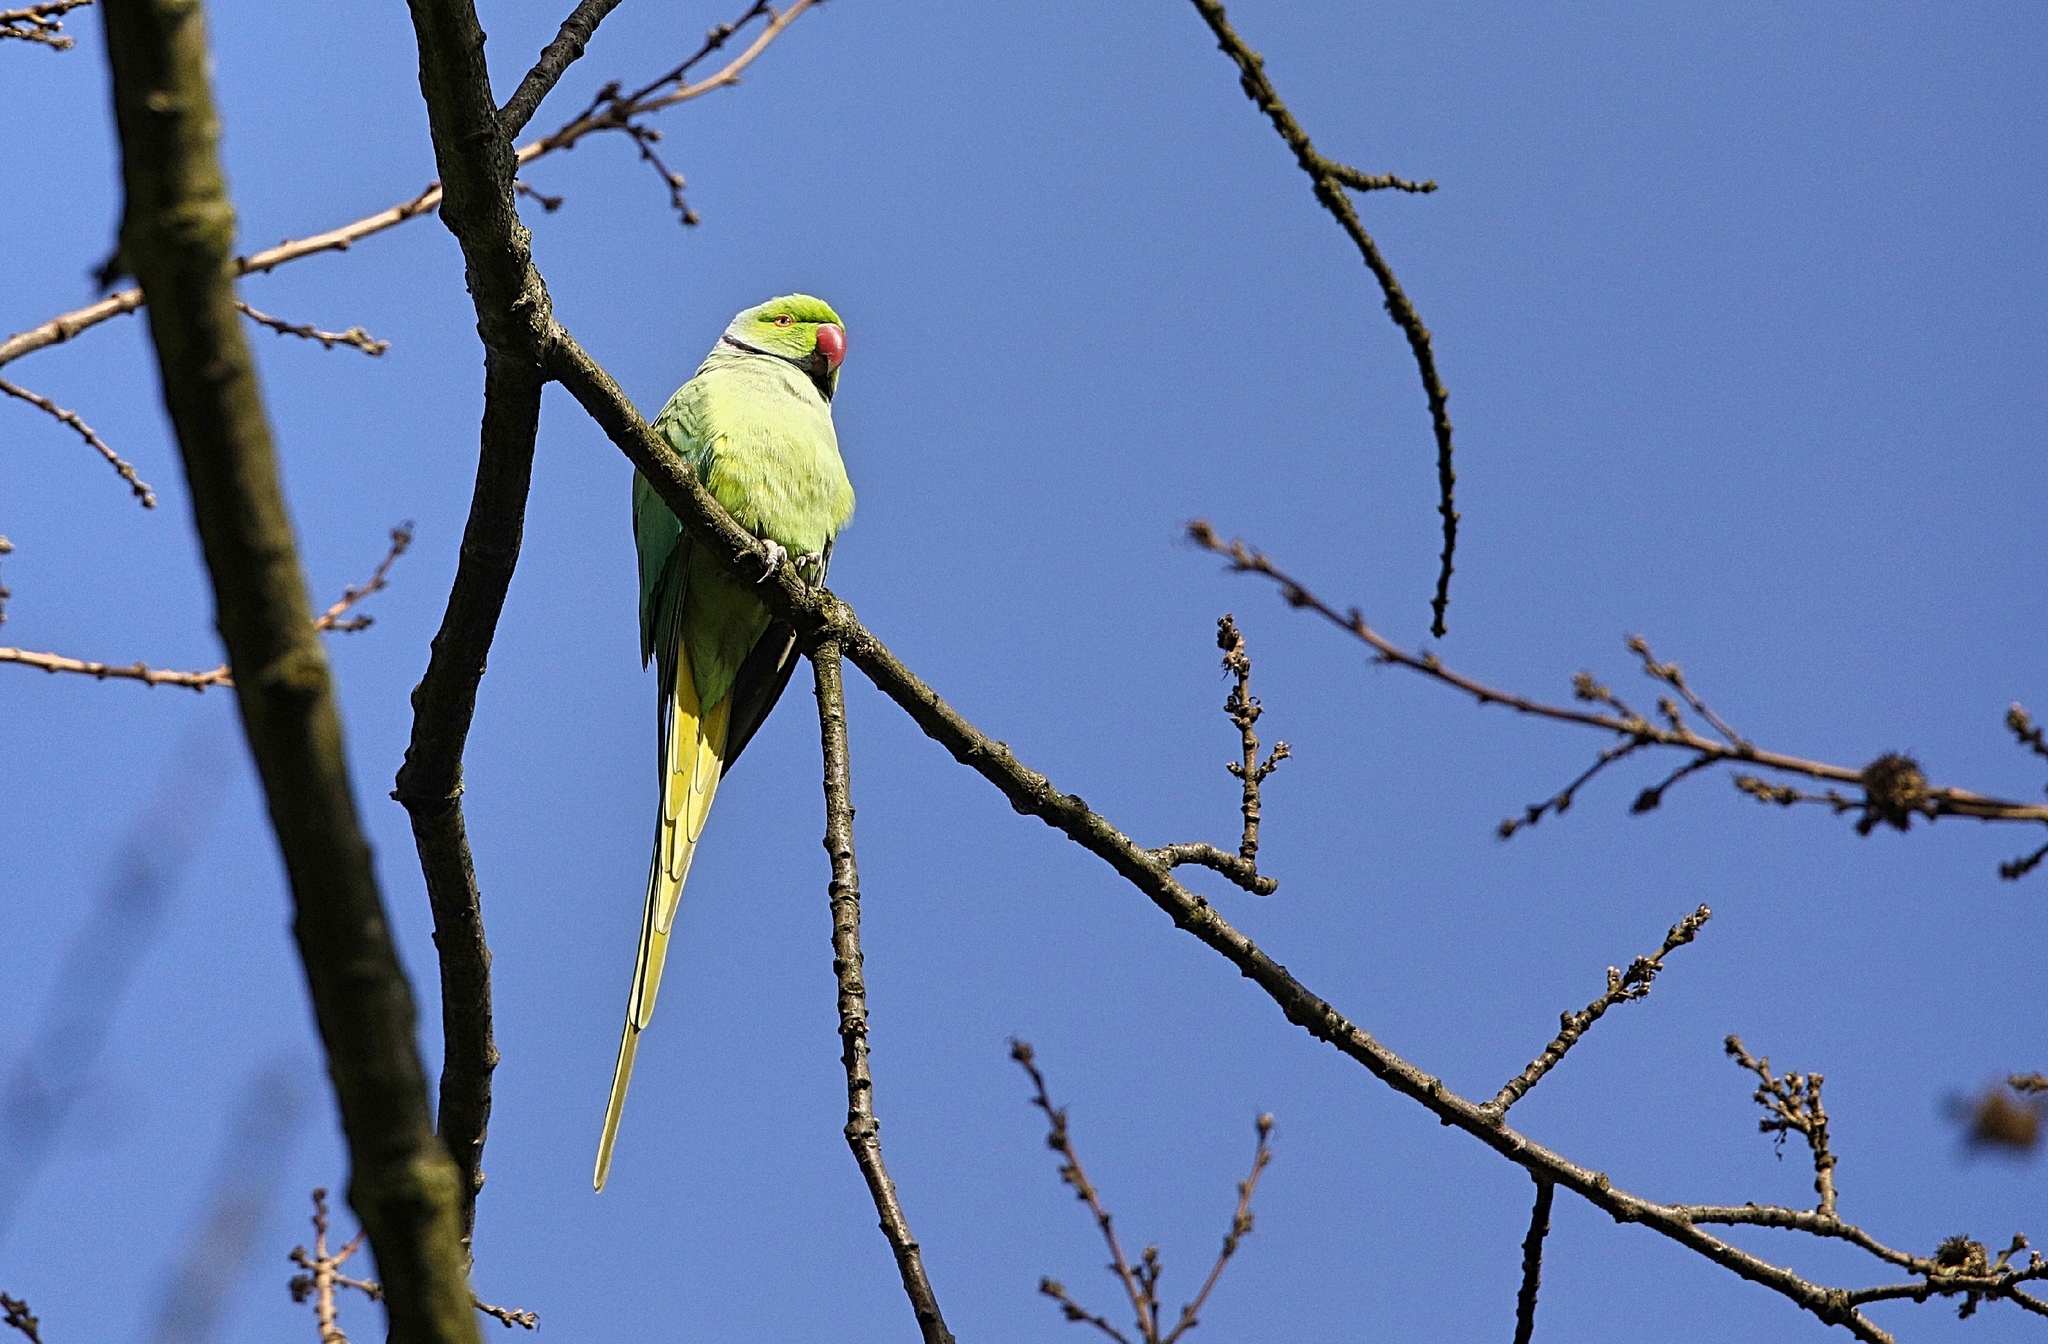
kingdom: Animalia
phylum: Chordata
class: Aves
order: Psittaciformes
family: Psittacidae
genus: Psittacula
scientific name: Psittacula krameri
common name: Rose-ringed parakeet
